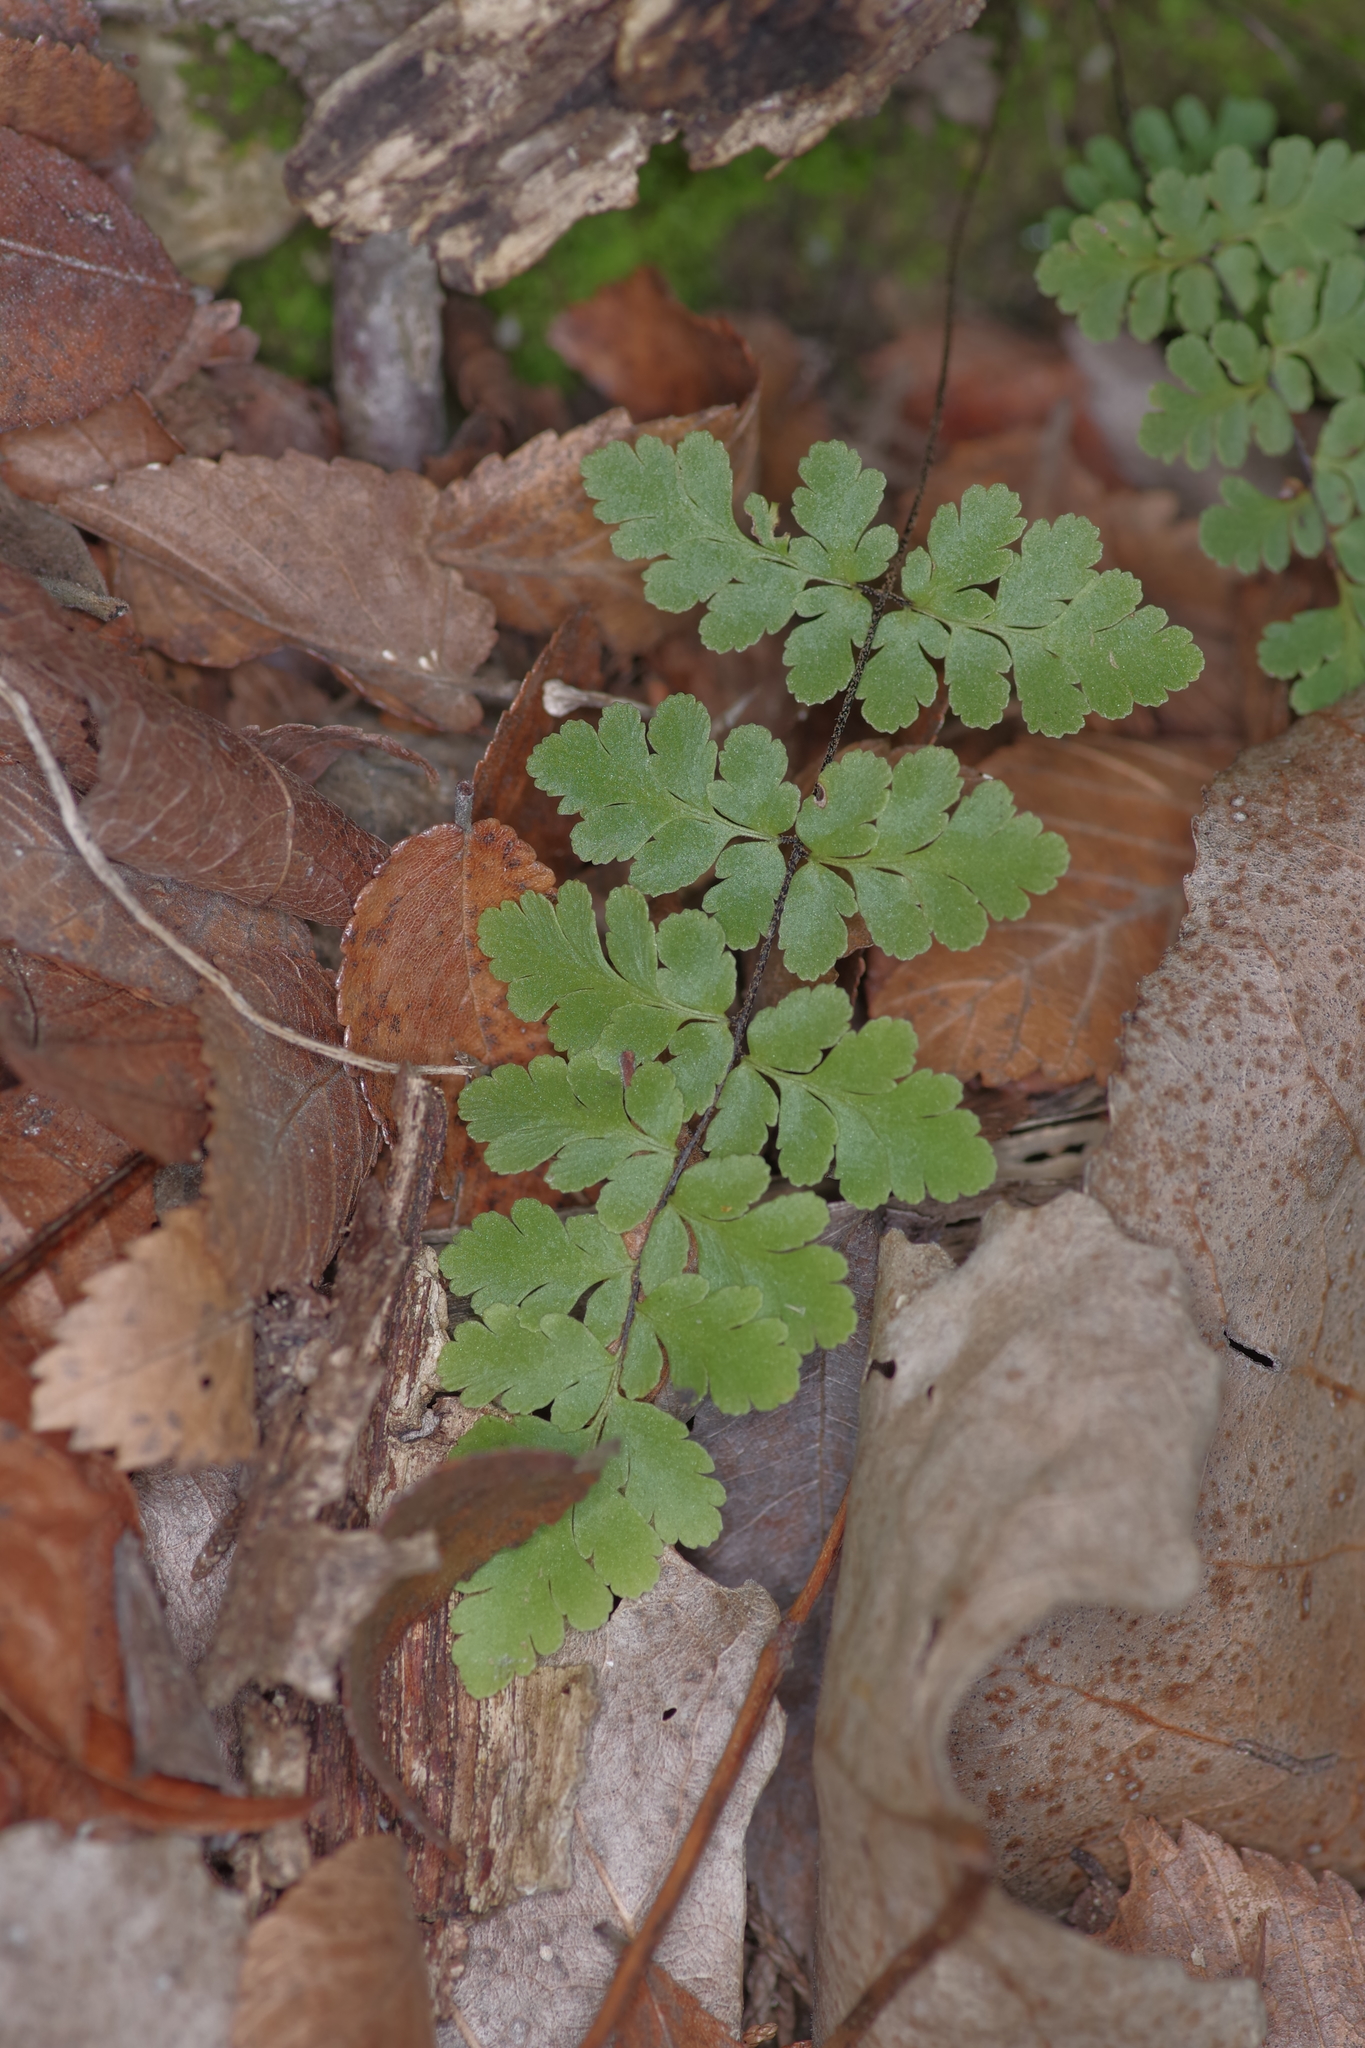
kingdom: Plantae
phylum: Tracheophyta
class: Polypodiopsida
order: Polypodiales
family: Pteridaceae
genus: Myriopteris
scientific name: Myriopteris alabamensis
